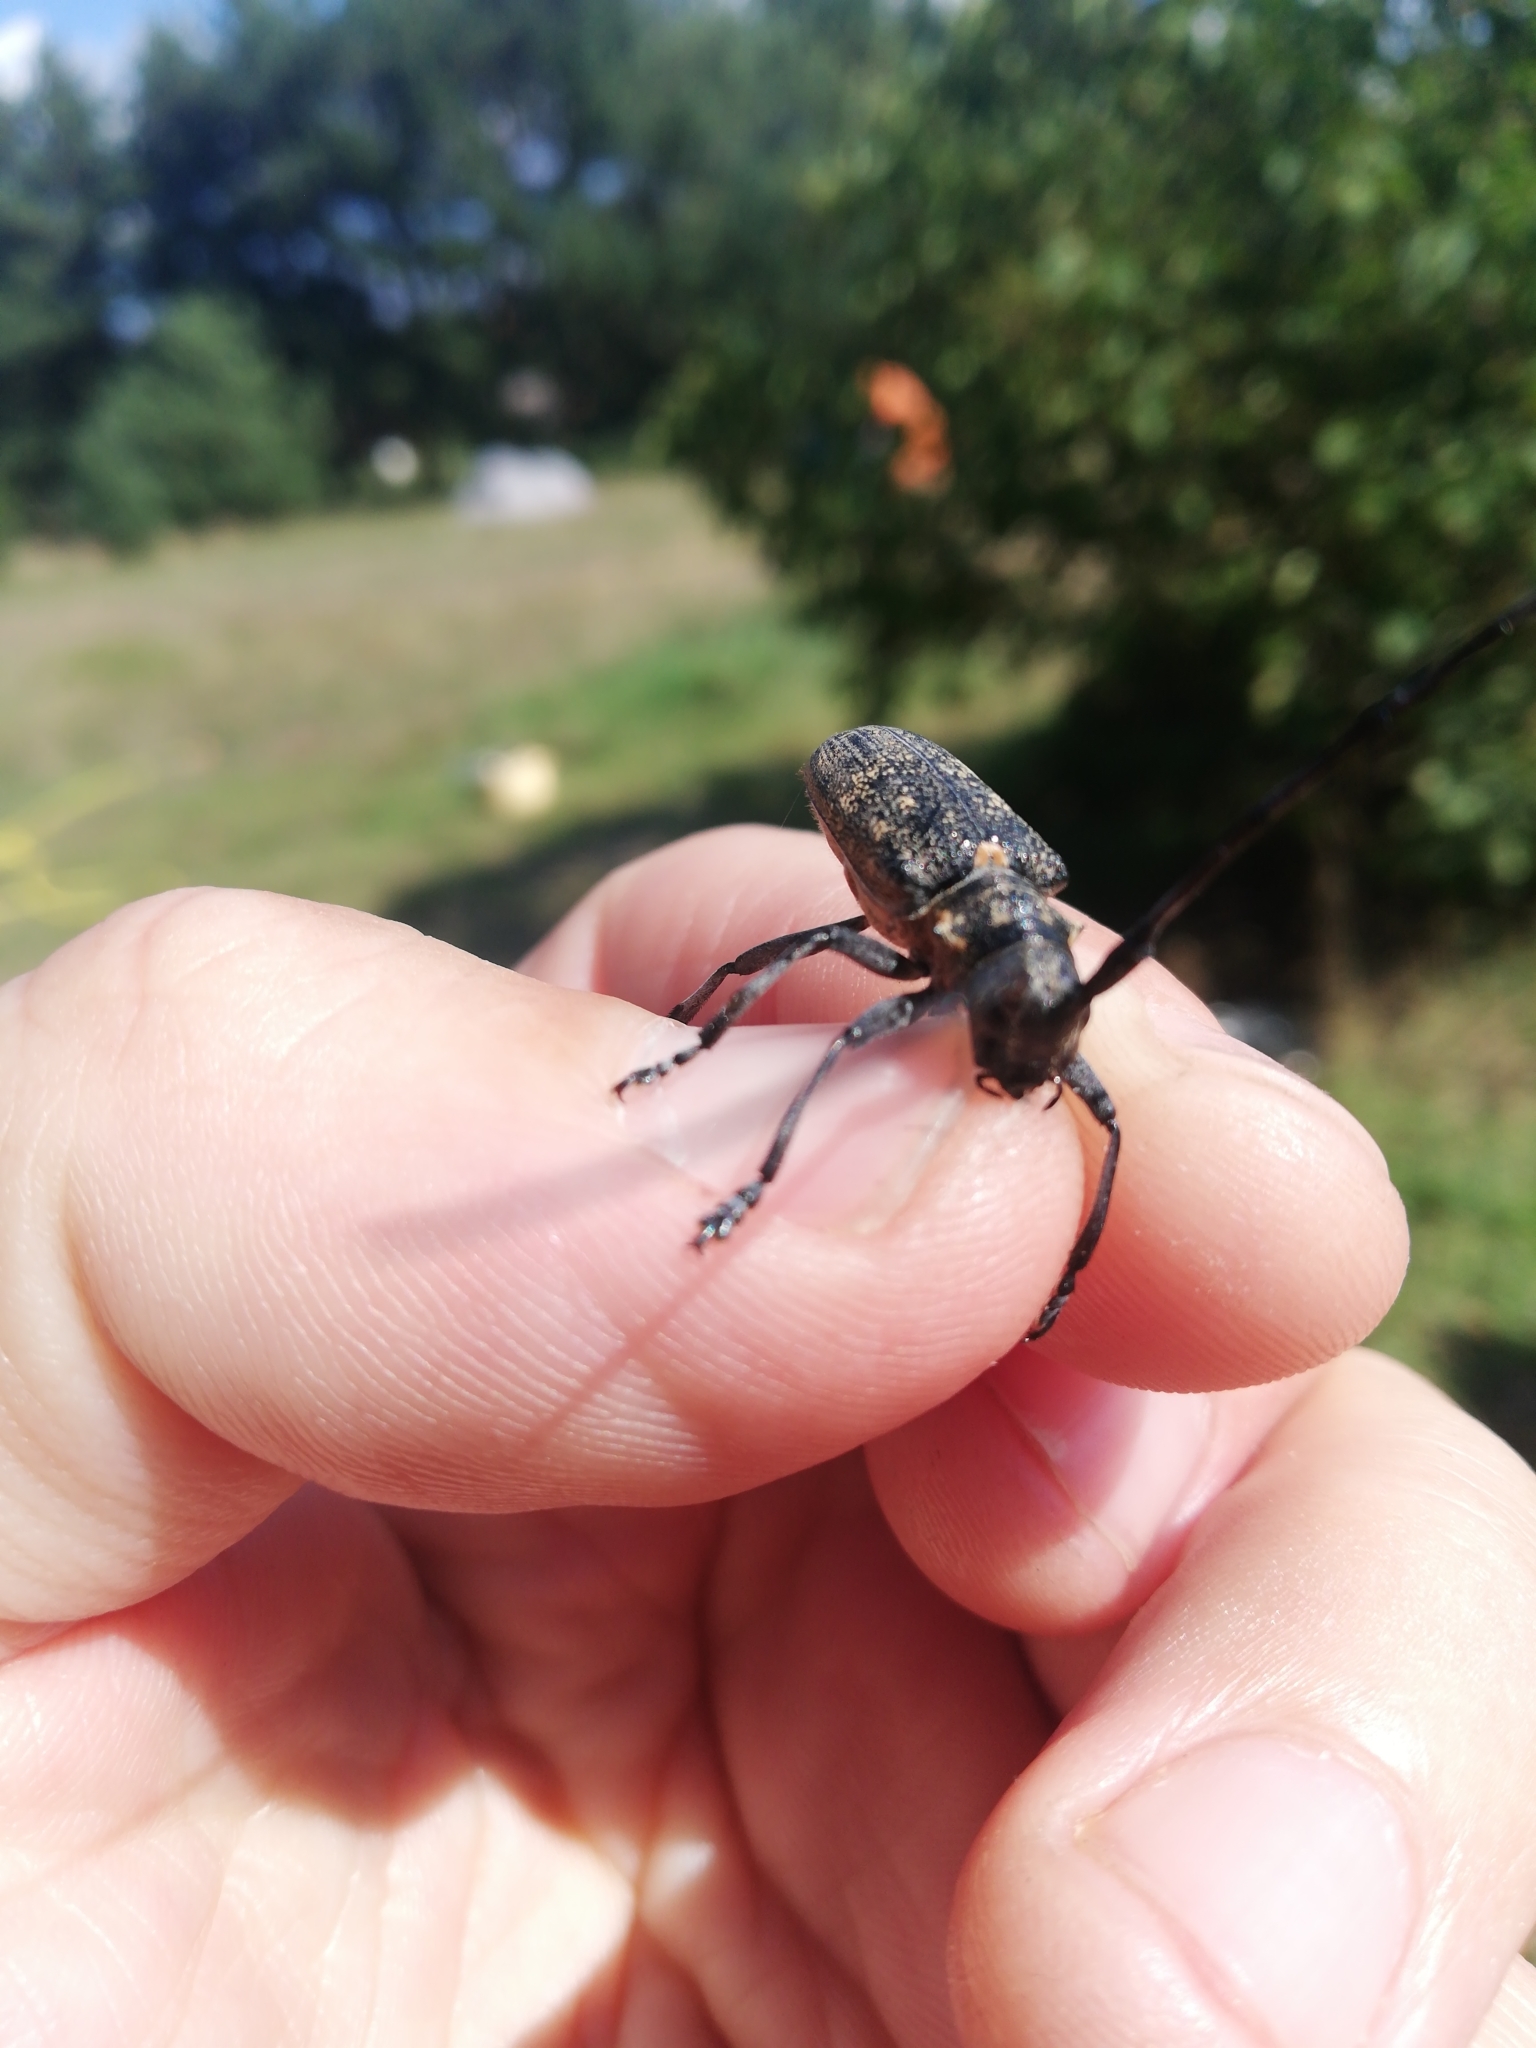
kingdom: Animalia
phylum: Arthropoda
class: Insecta
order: Coleoptera
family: Cerambycidae
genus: Monochamus
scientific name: Monochamus galloprovincialis
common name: Pine sawyer
